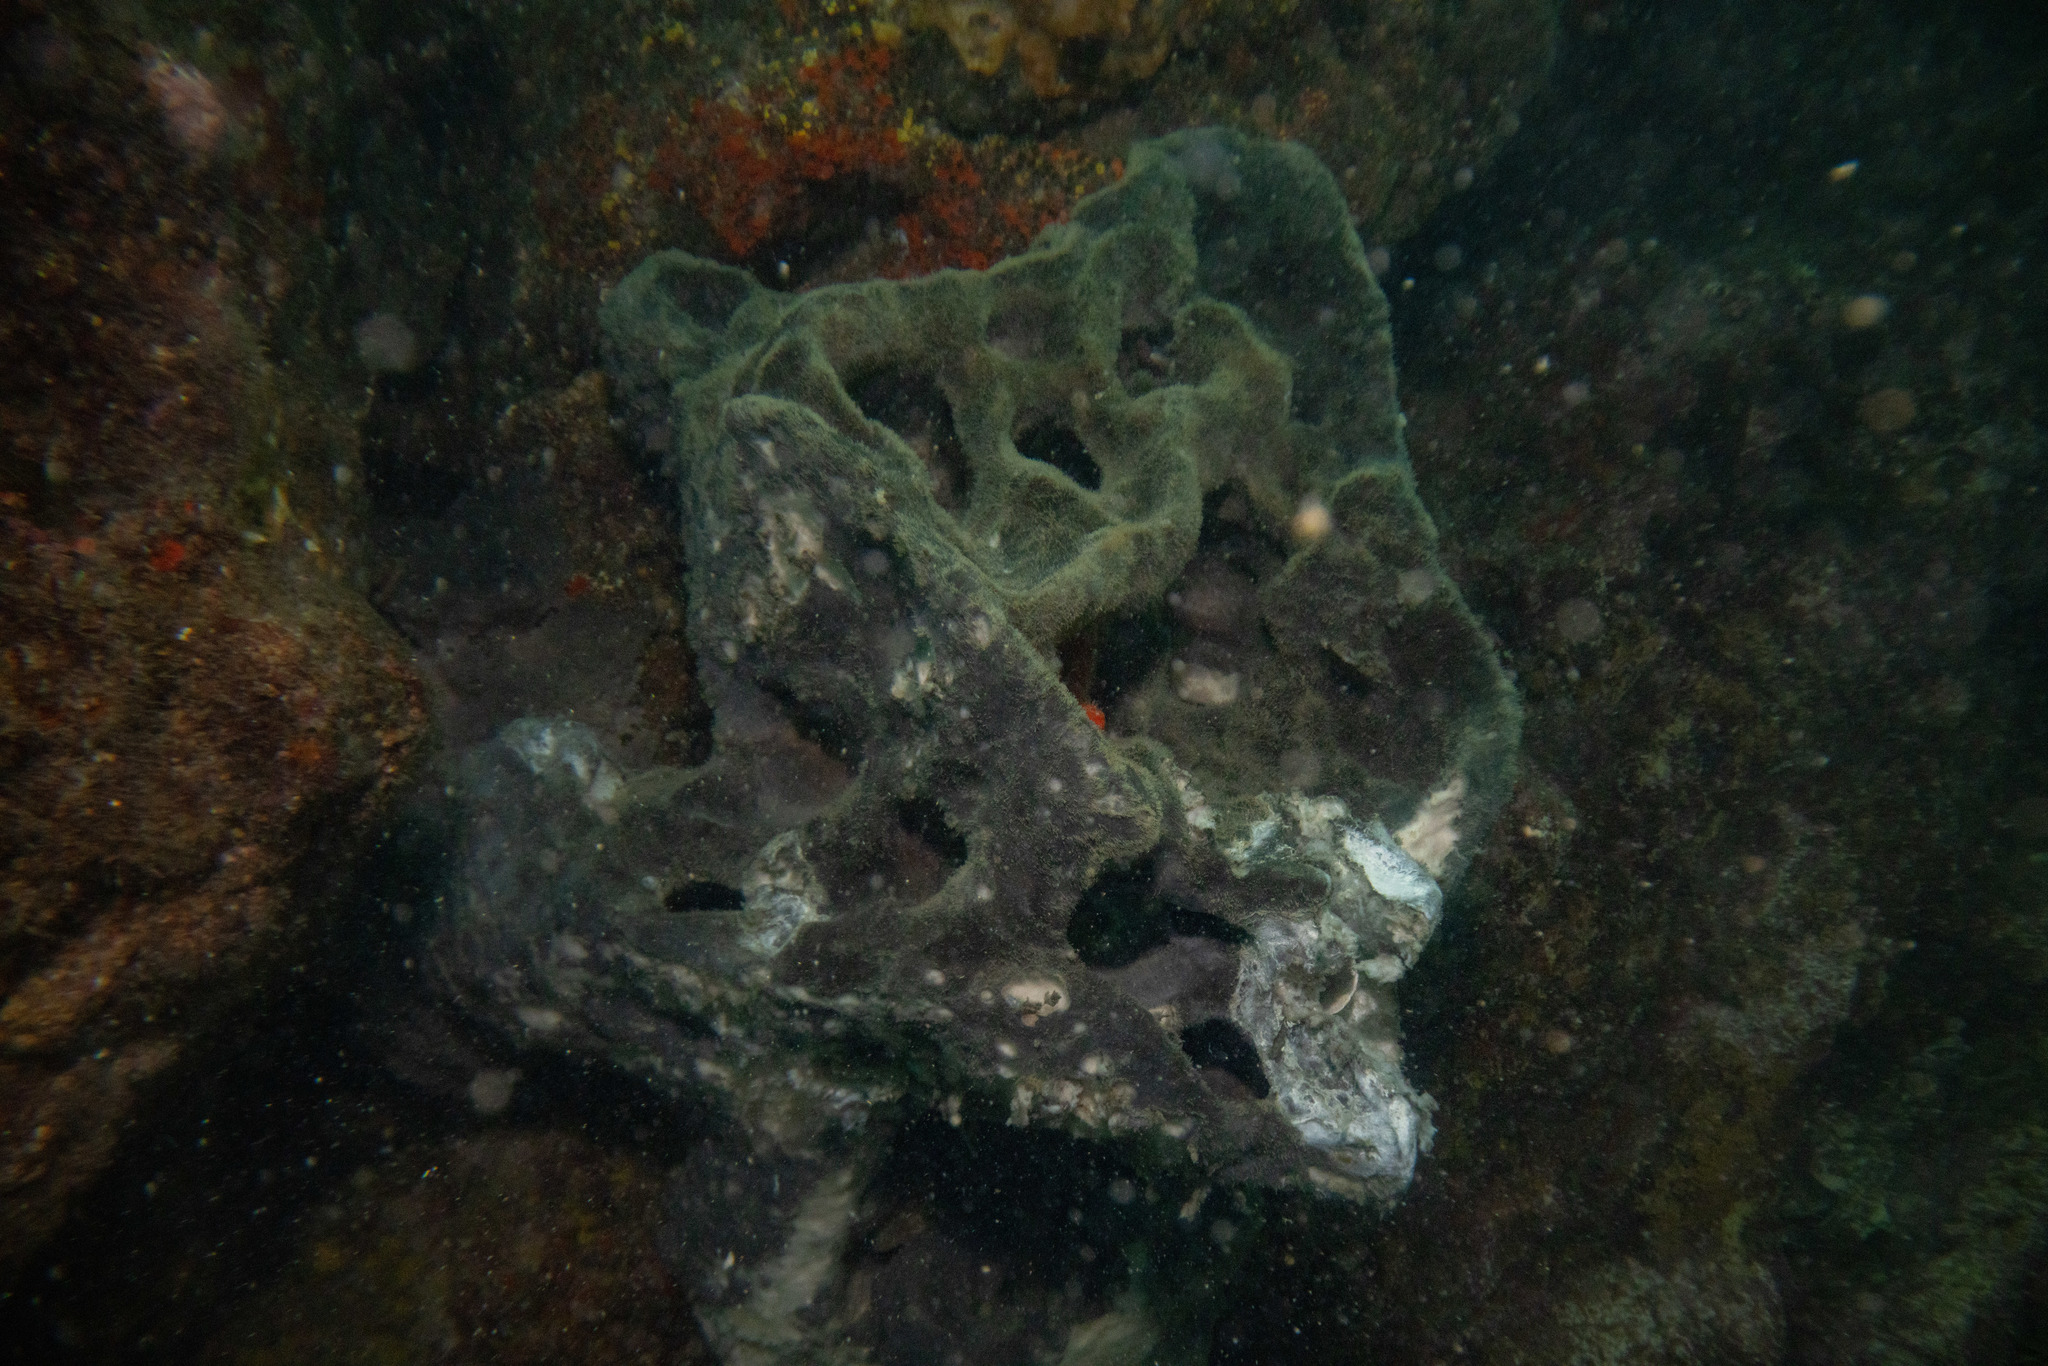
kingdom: Animalia
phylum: Porifera
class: Demospongiae
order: Tetractinellida
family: Ancorinidae
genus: Ecionemia
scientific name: Ecionemia alata
